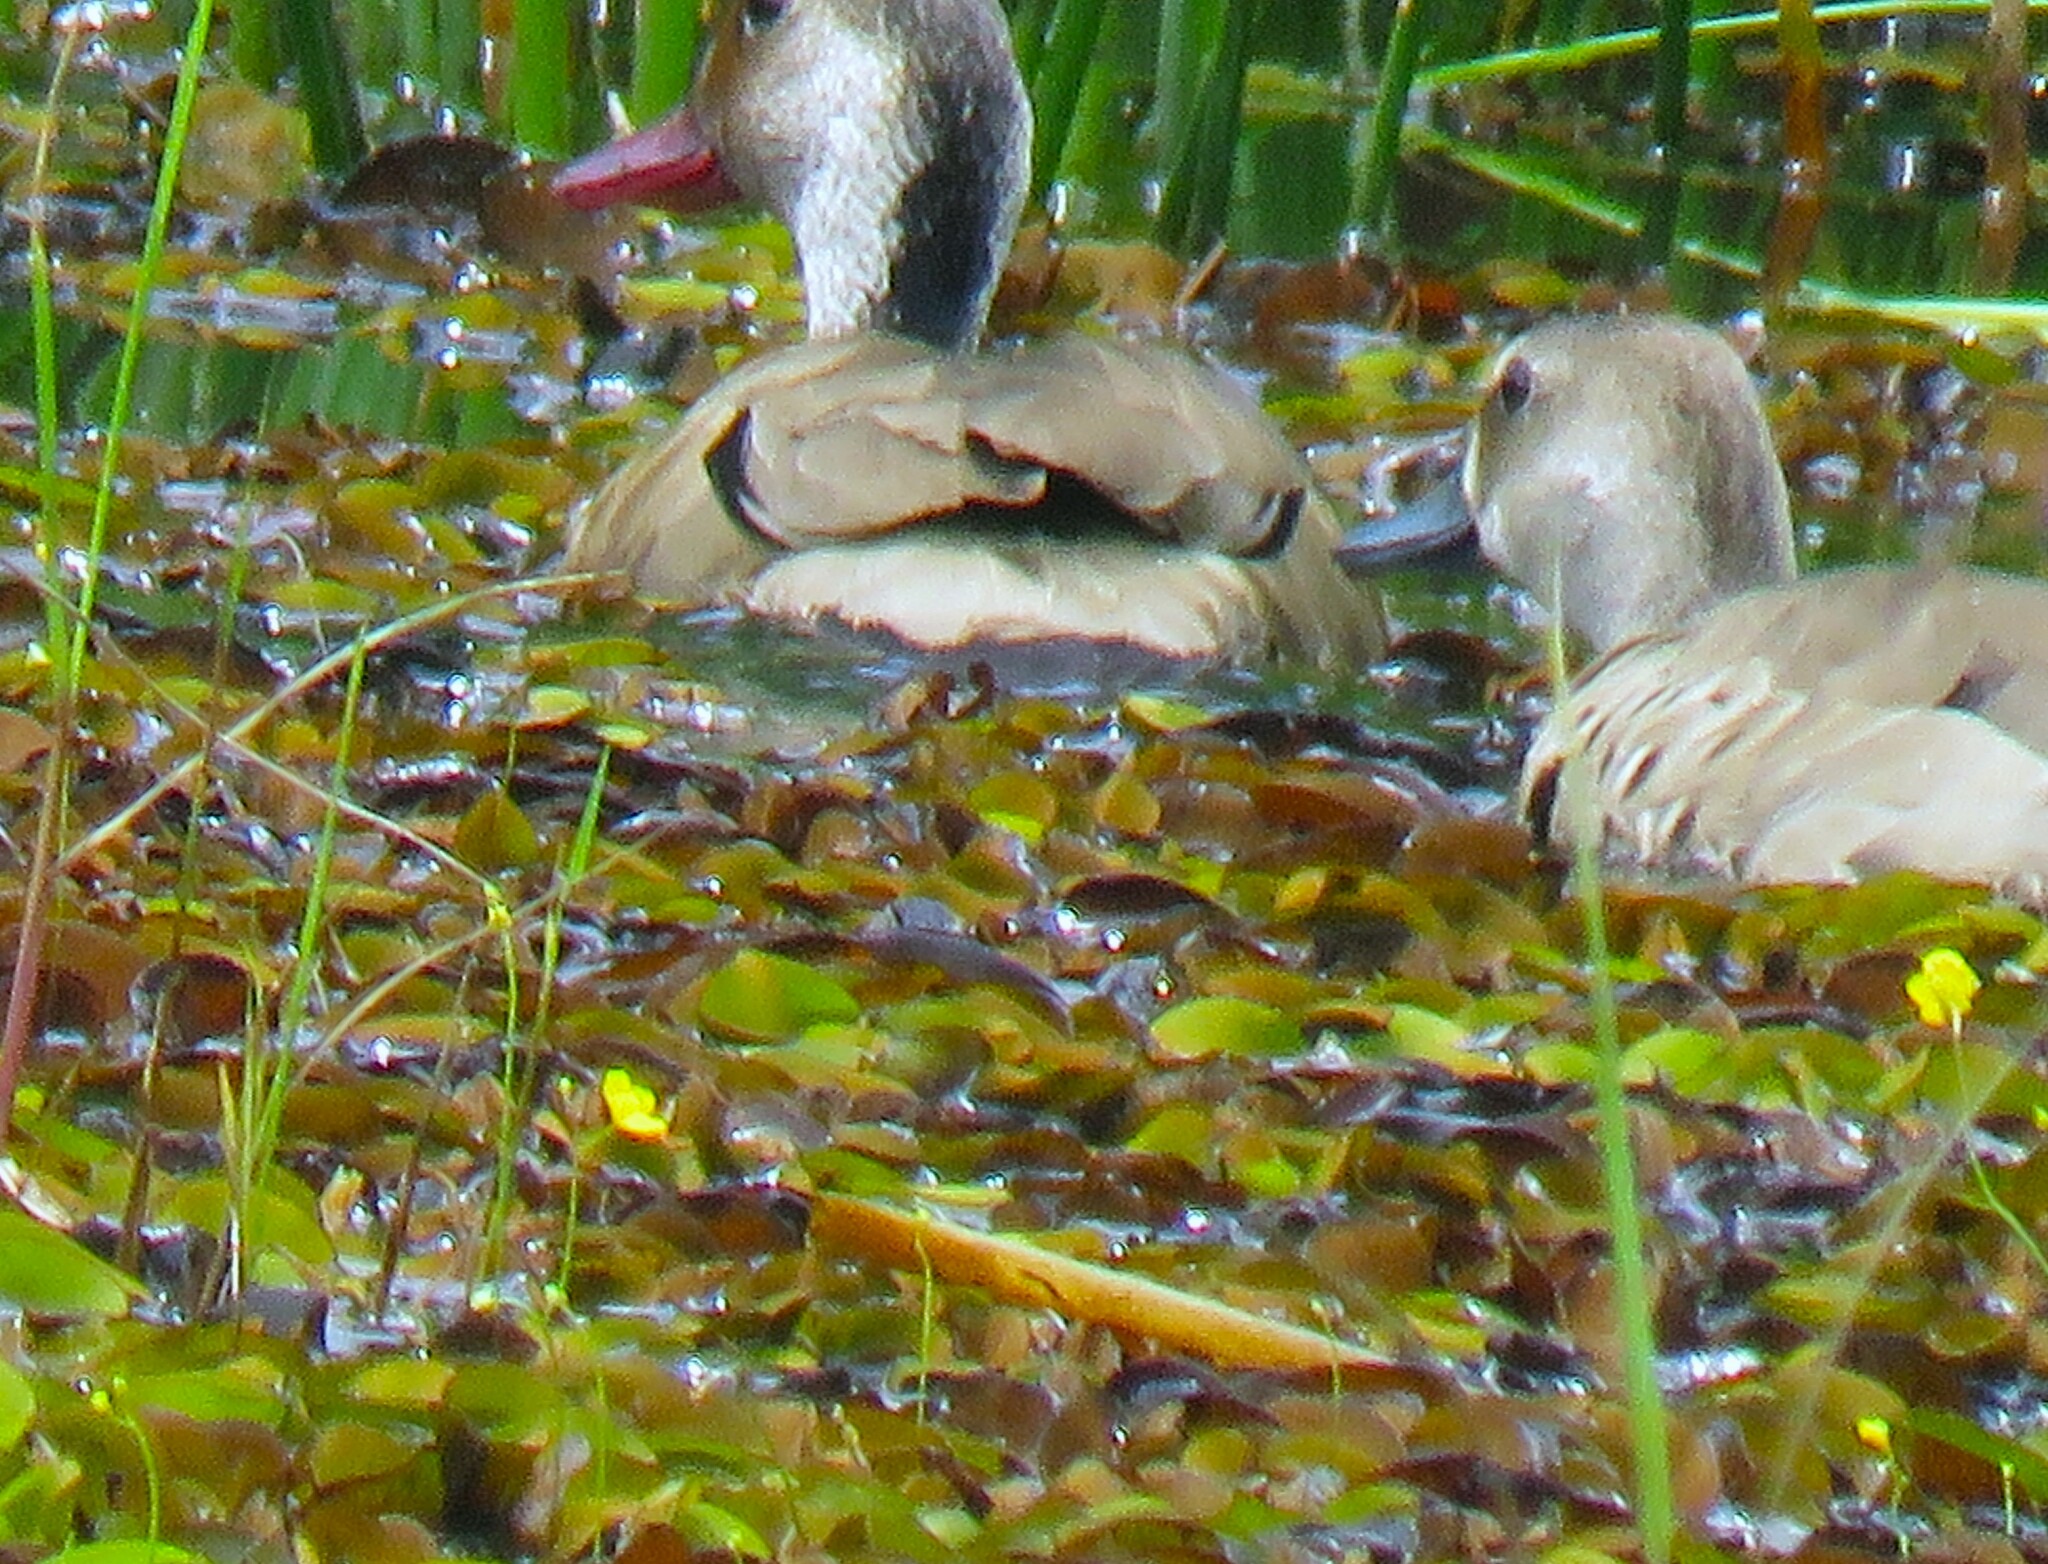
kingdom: Animalia
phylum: Chordata
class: Aves
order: Anseriformes
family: Anatidae
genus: Amazonetta
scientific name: Amazonetta brasiliensis
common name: Brazilian teal
